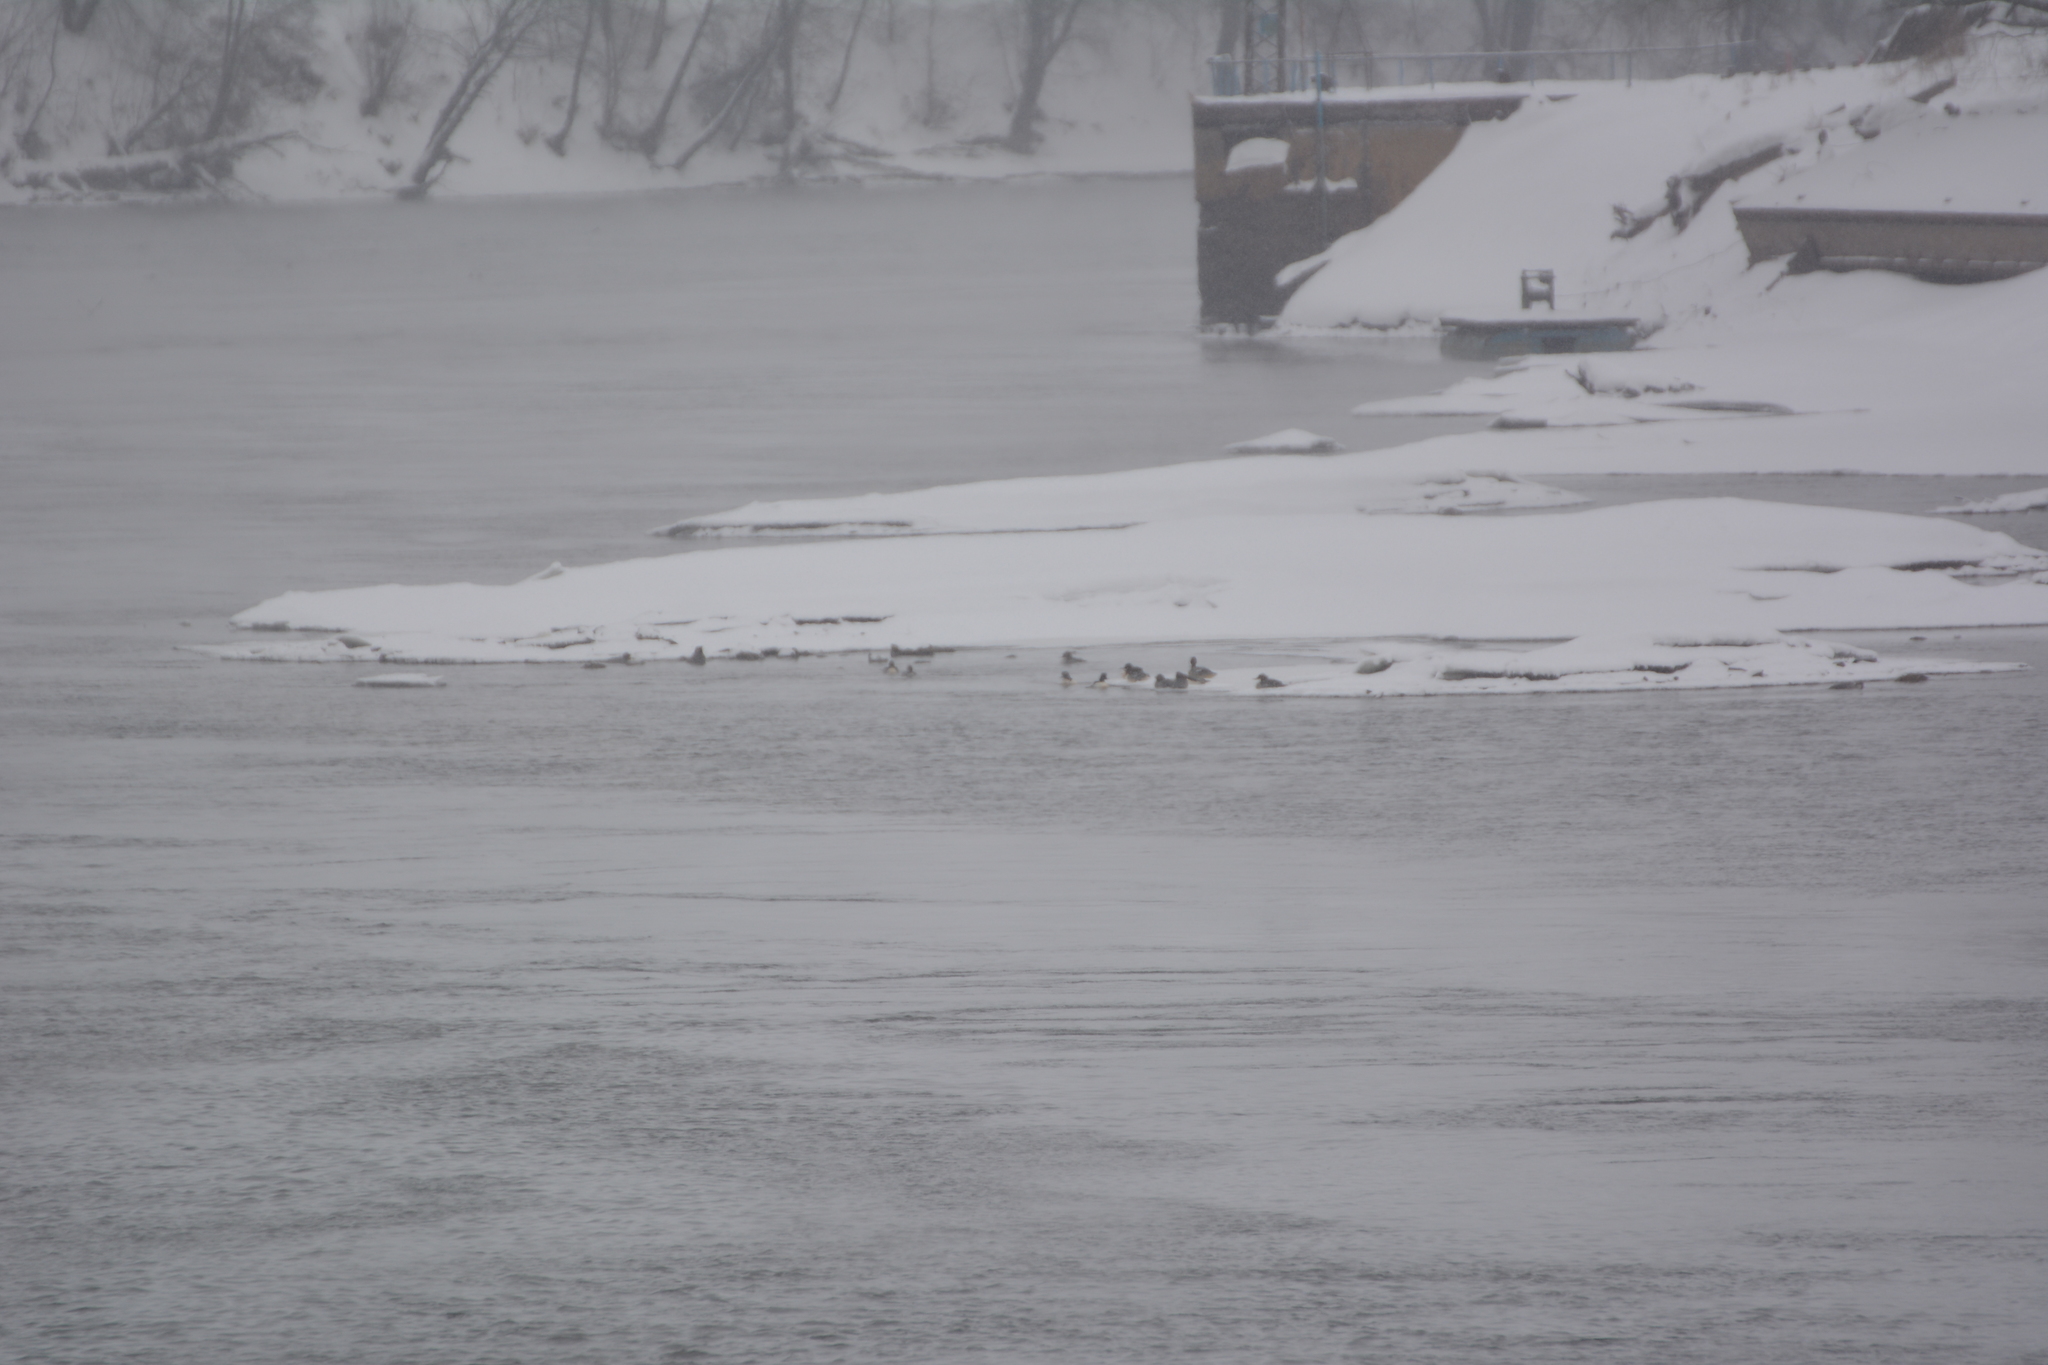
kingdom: Animalia
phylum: Chordata
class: Aves
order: Anseriformes
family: Anatidae
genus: Mergus
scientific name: Mergus merganser
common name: Common merganser
